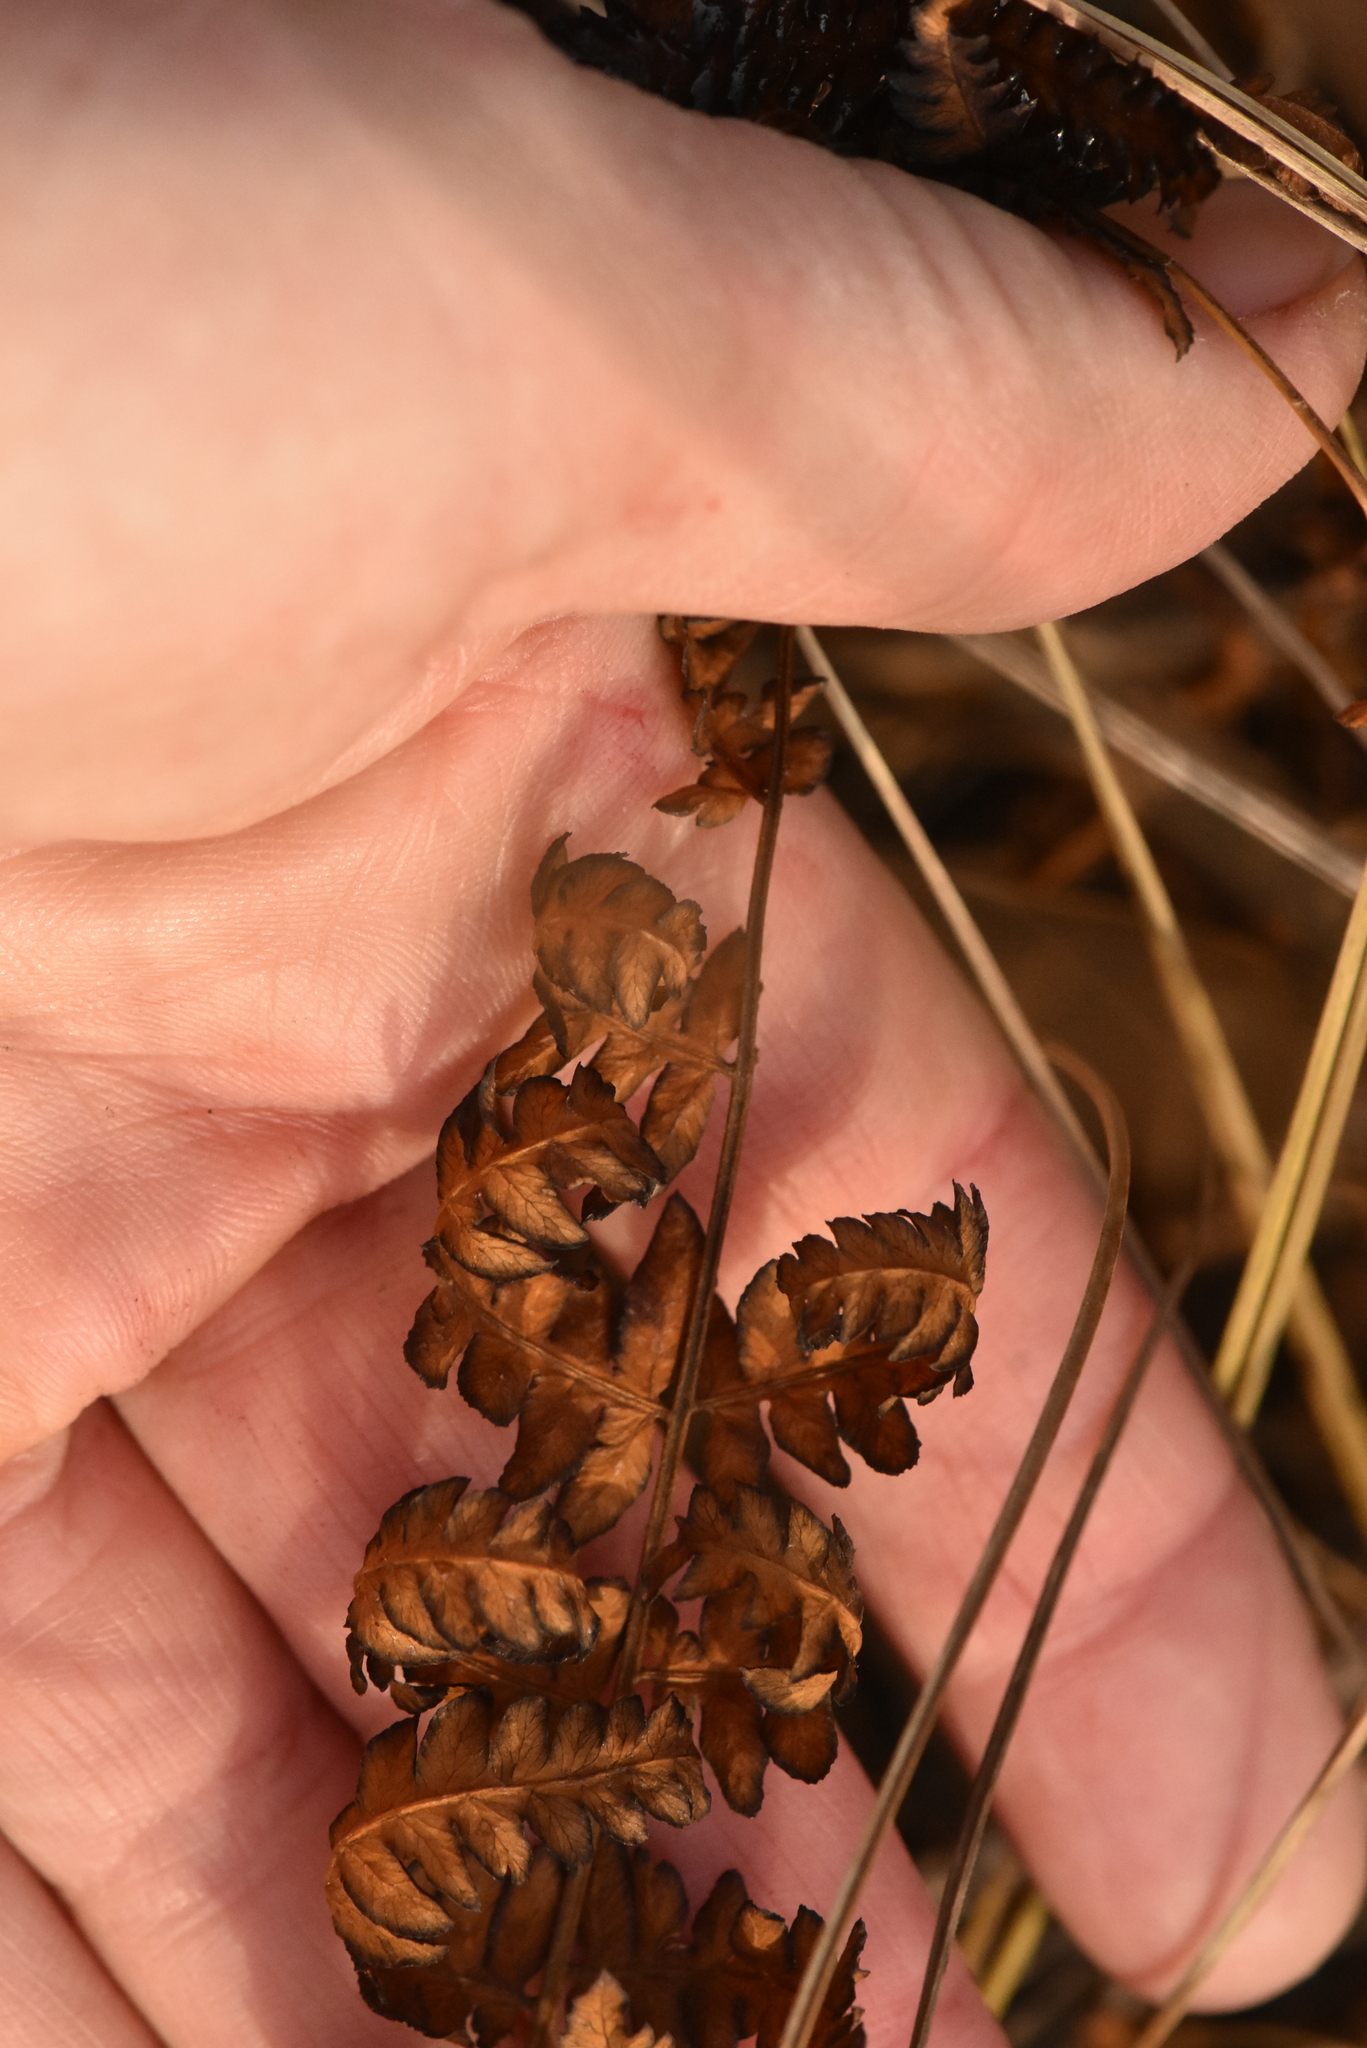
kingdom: Plantae
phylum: Tracheophyta
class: Polypodiopsida
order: Polypodiales
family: Thelypteridaceae
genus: Thelypteris
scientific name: Thelypteris palustris
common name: Marsh fern
